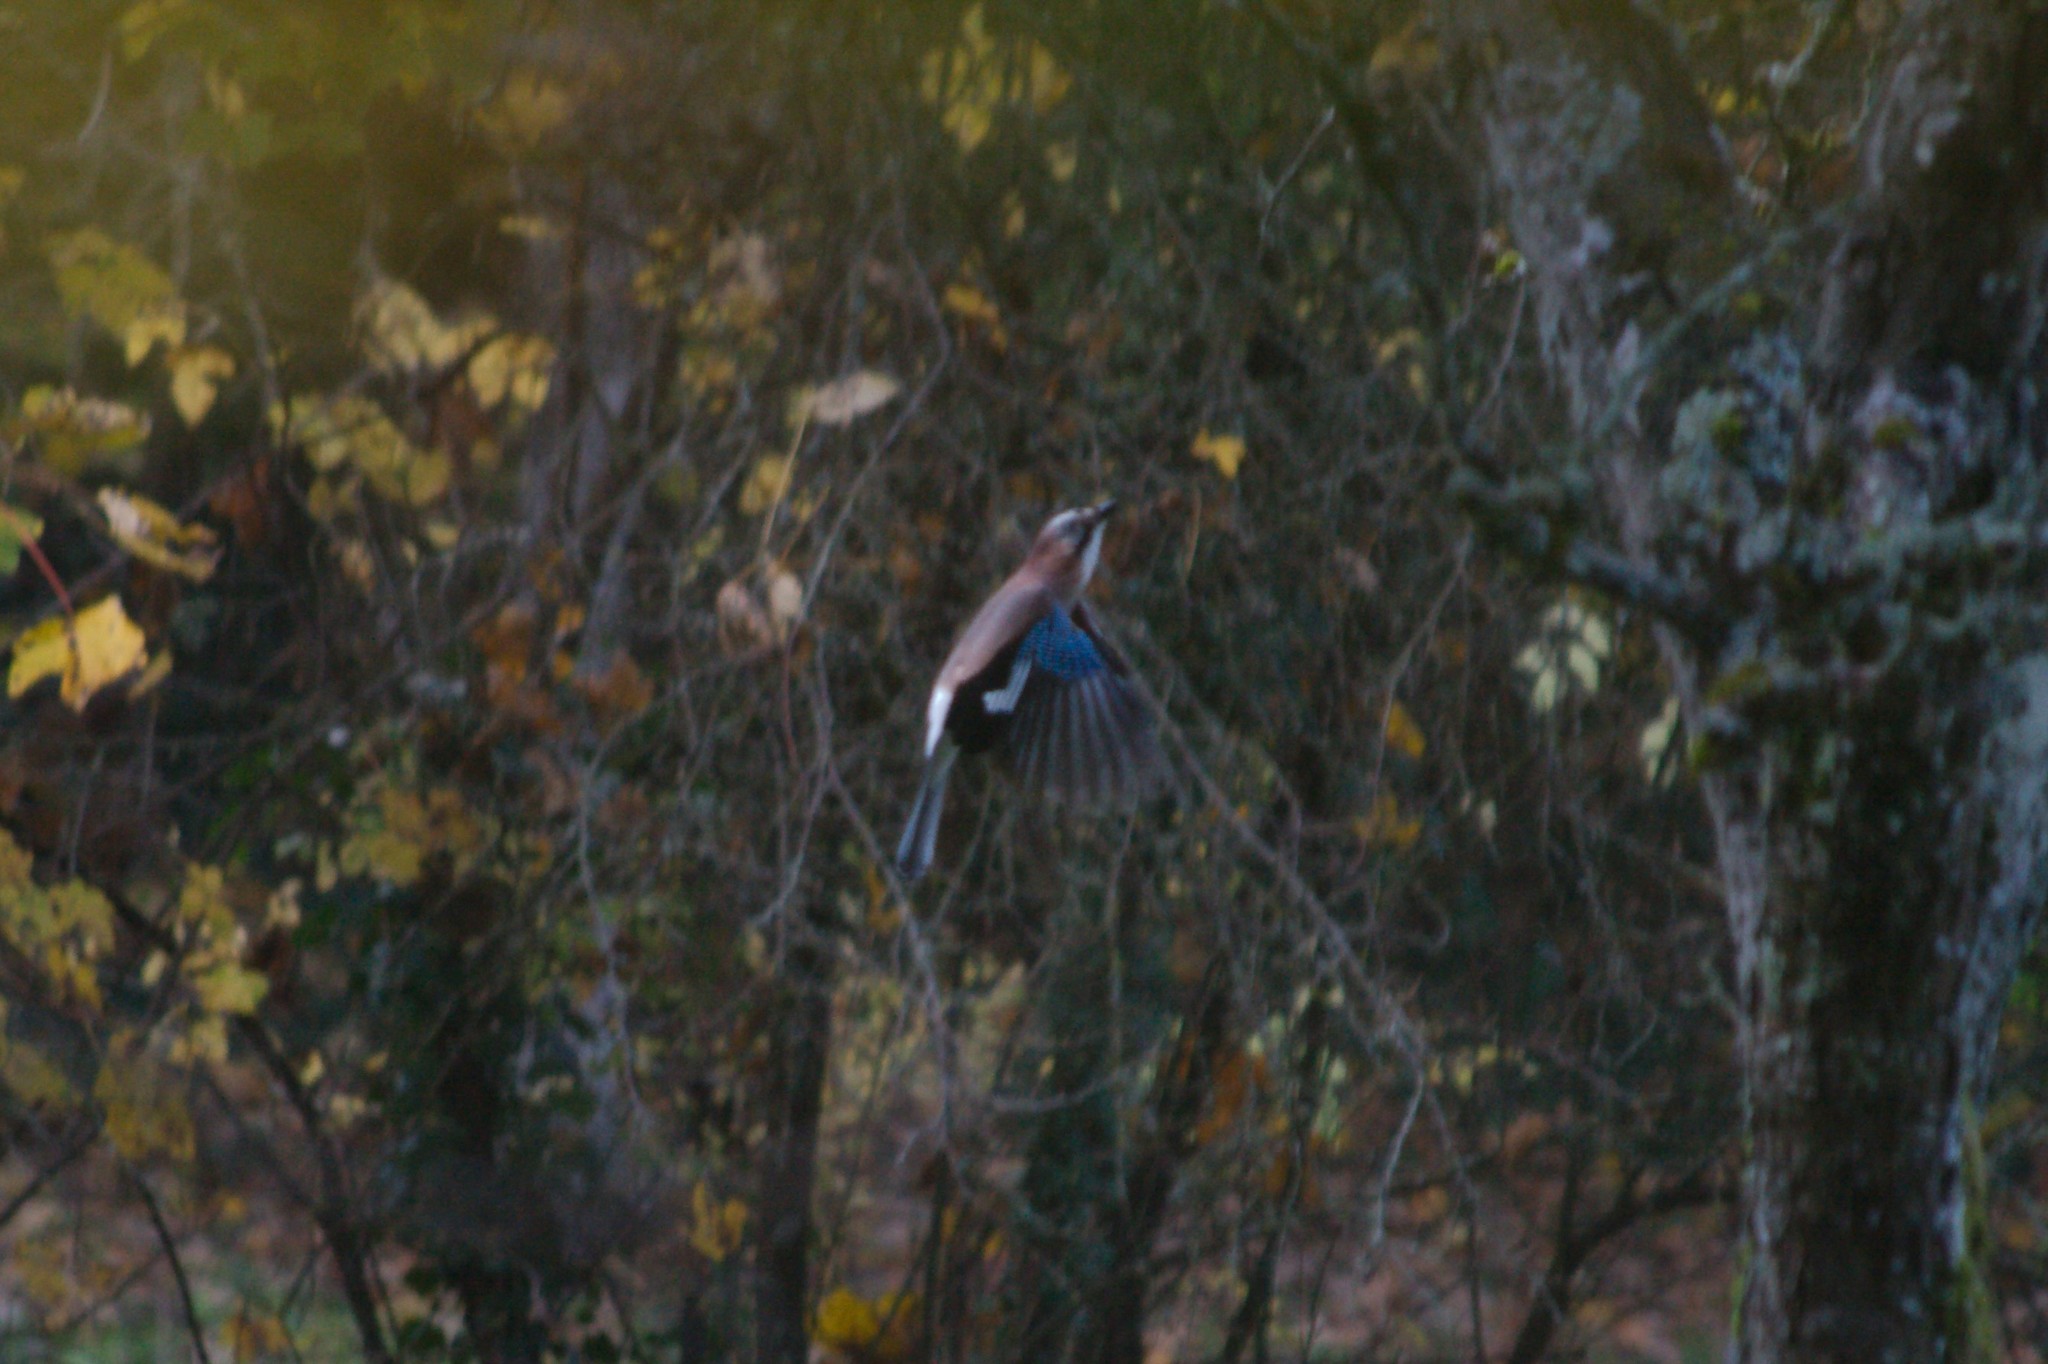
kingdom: Animalia
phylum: Chordata
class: Aves
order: Passeriformes
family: Corvidae
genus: Garrulus
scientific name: Garrulus glandarius
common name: Eurasian jay
